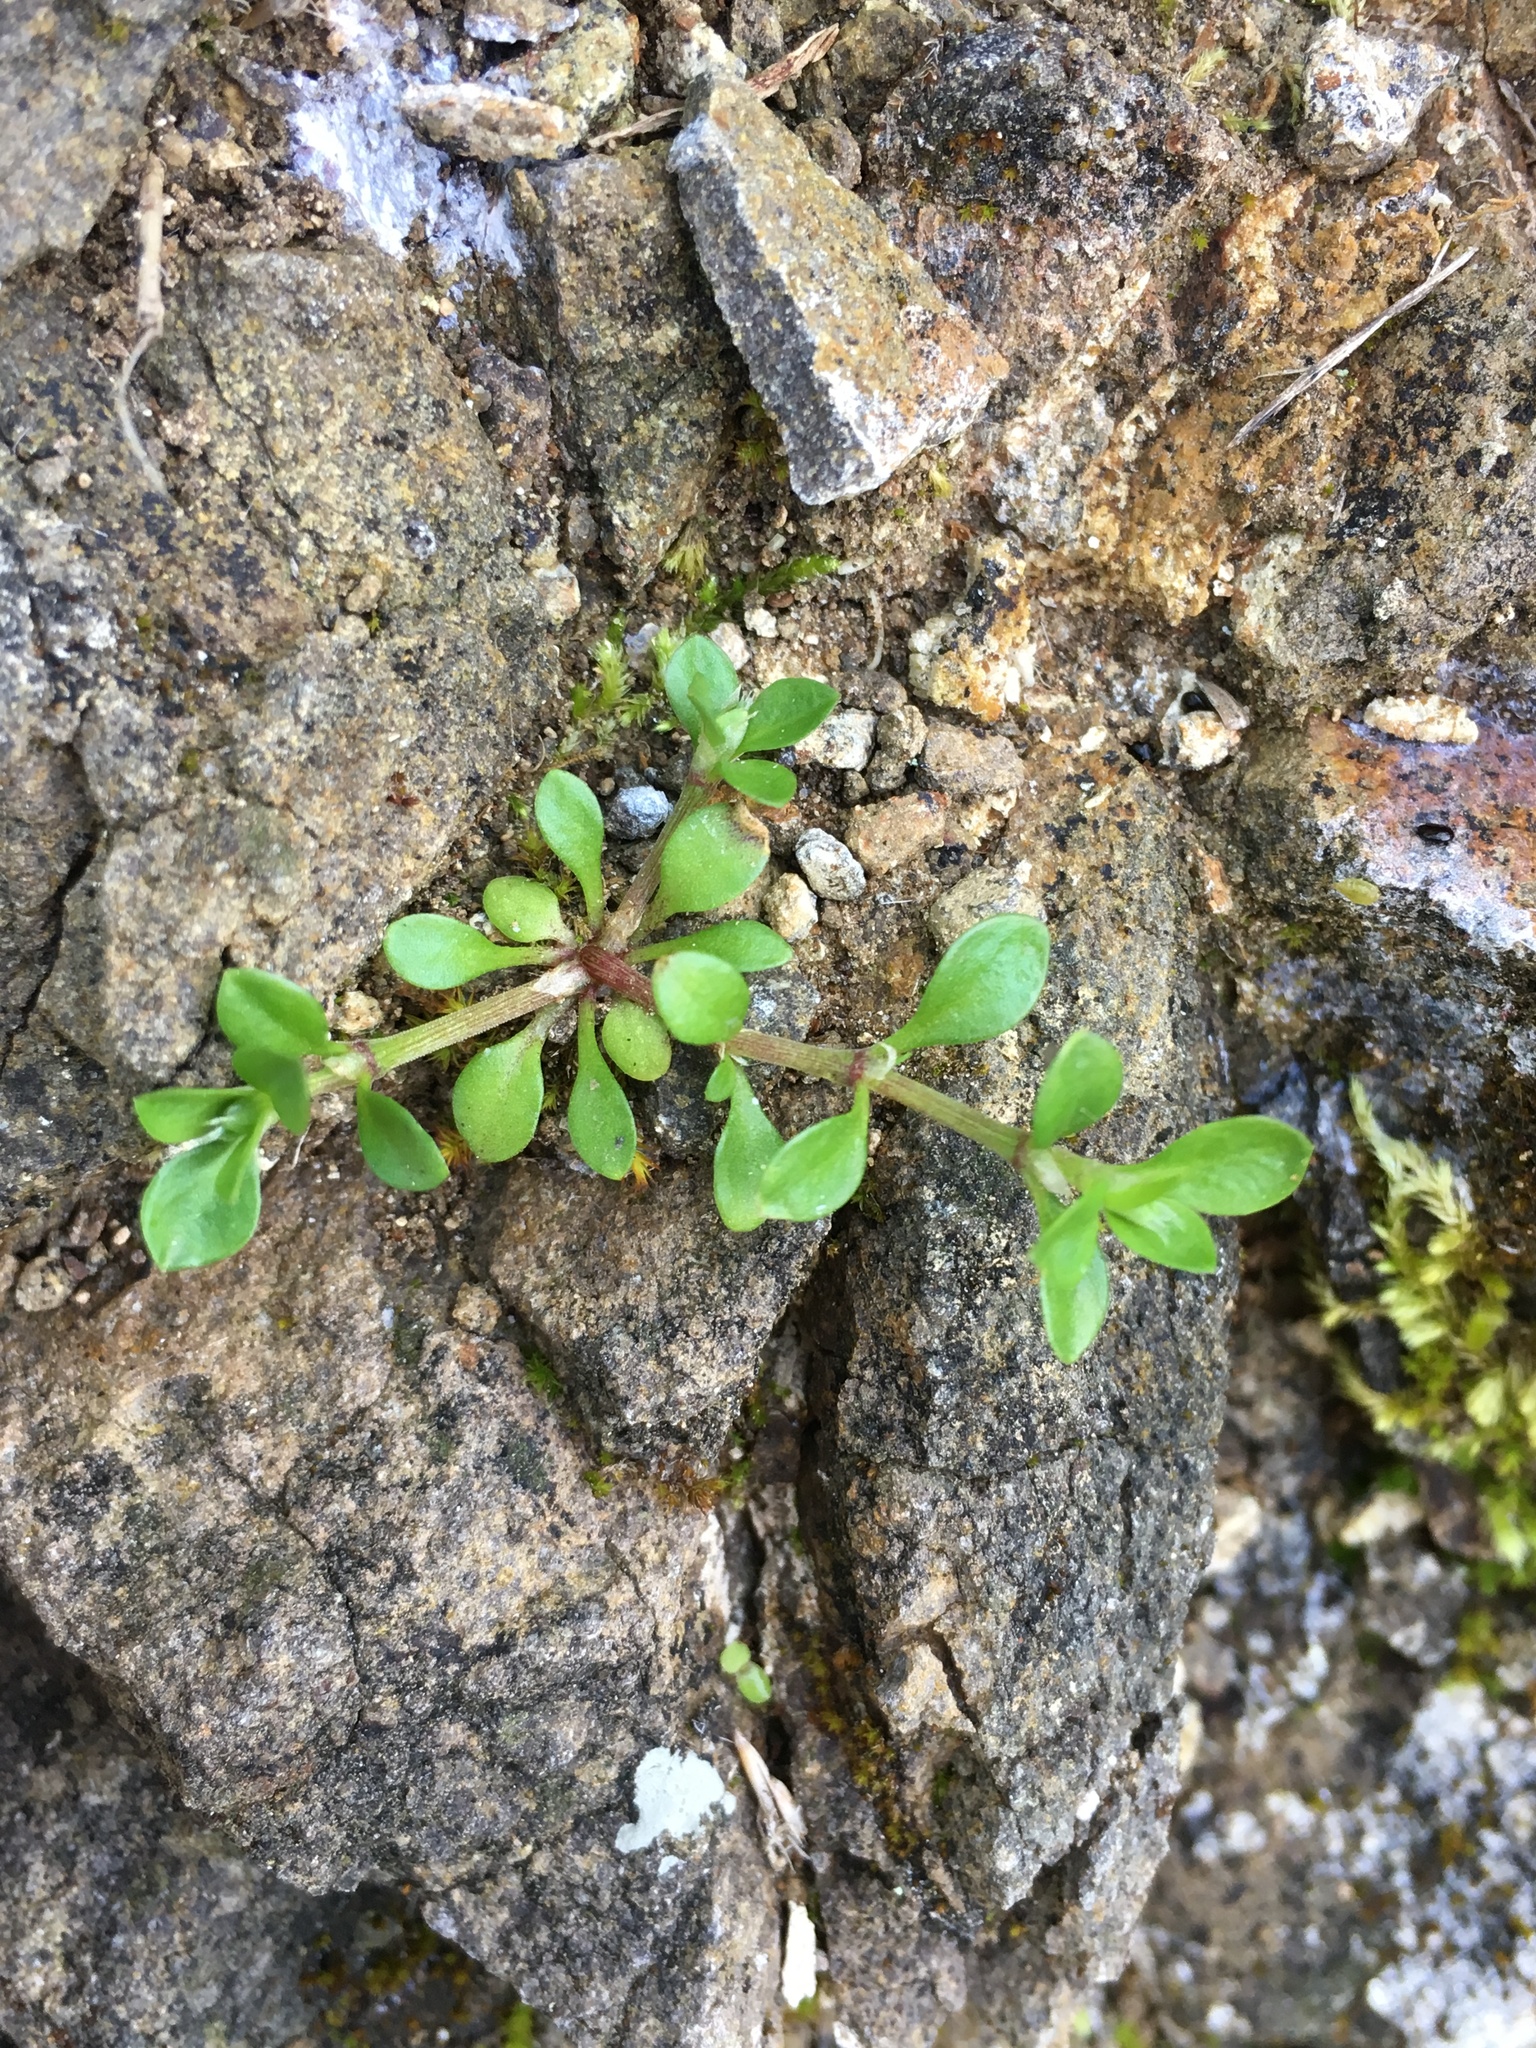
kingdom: Plantae
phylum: Tracheophyta
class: Magnoliopsida
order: Caryophyllales
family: Caryophyllaceae
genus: Polycarpon
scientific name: Polycarpon tetraphyllum
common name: Four-leaved all-seed
